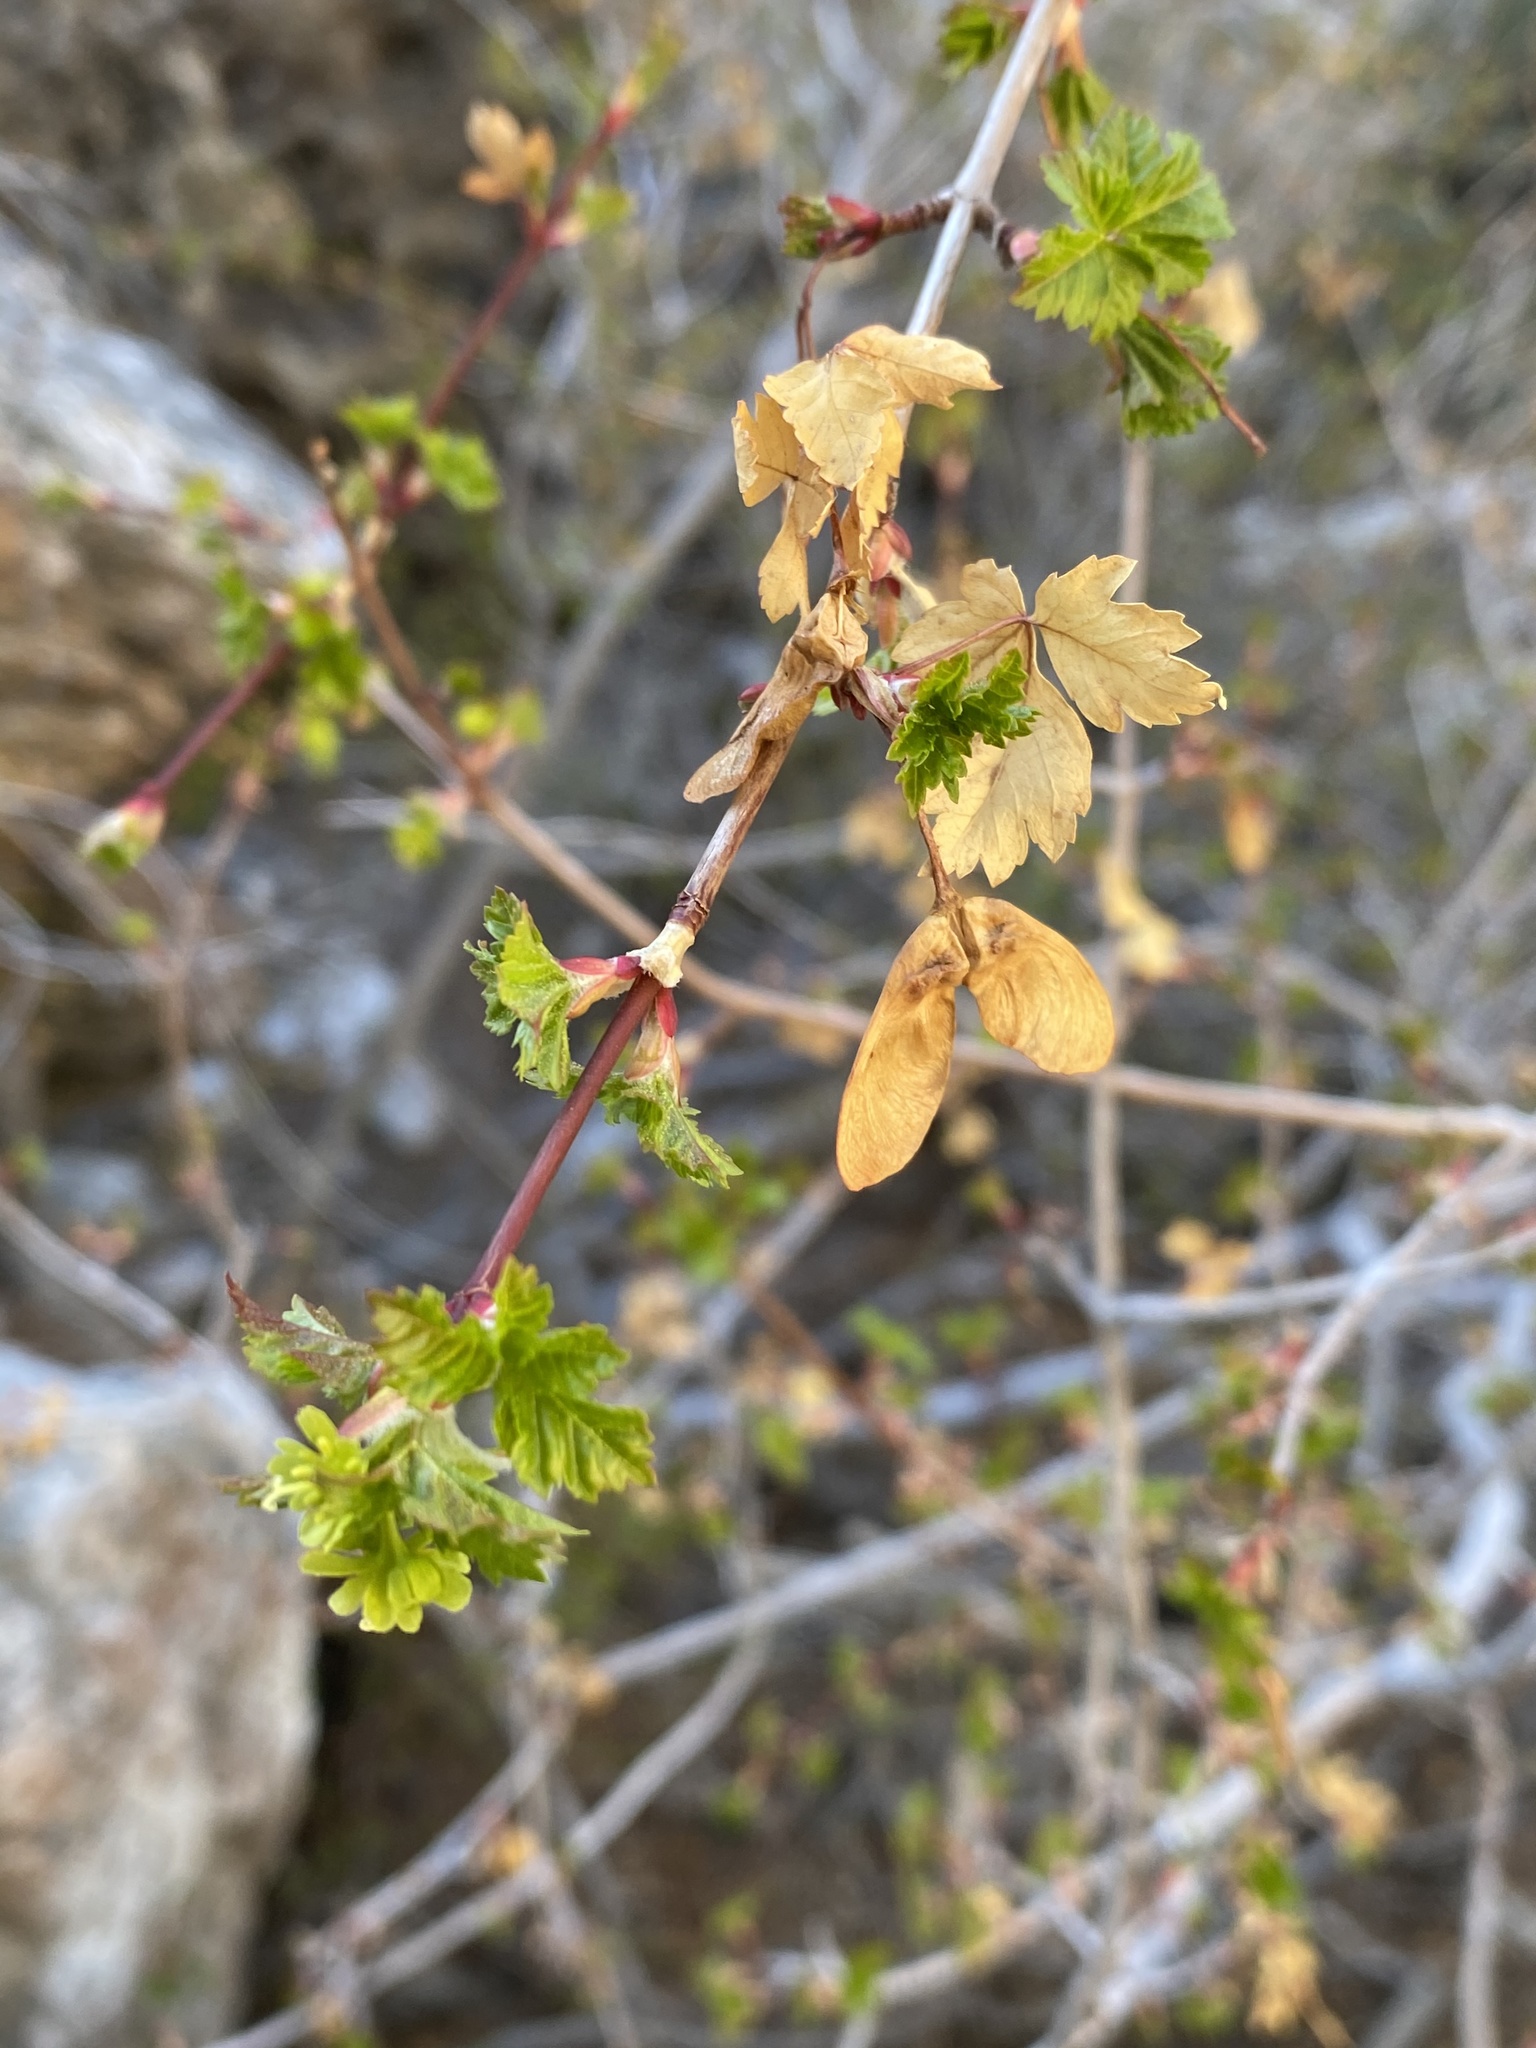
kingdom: Plantae
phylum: Tracheophyta
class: Magnoliopsida
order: Sapindales
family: Sapindaceae
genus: Acer
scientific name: Acer glabrum
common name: Rocky mountain maple
